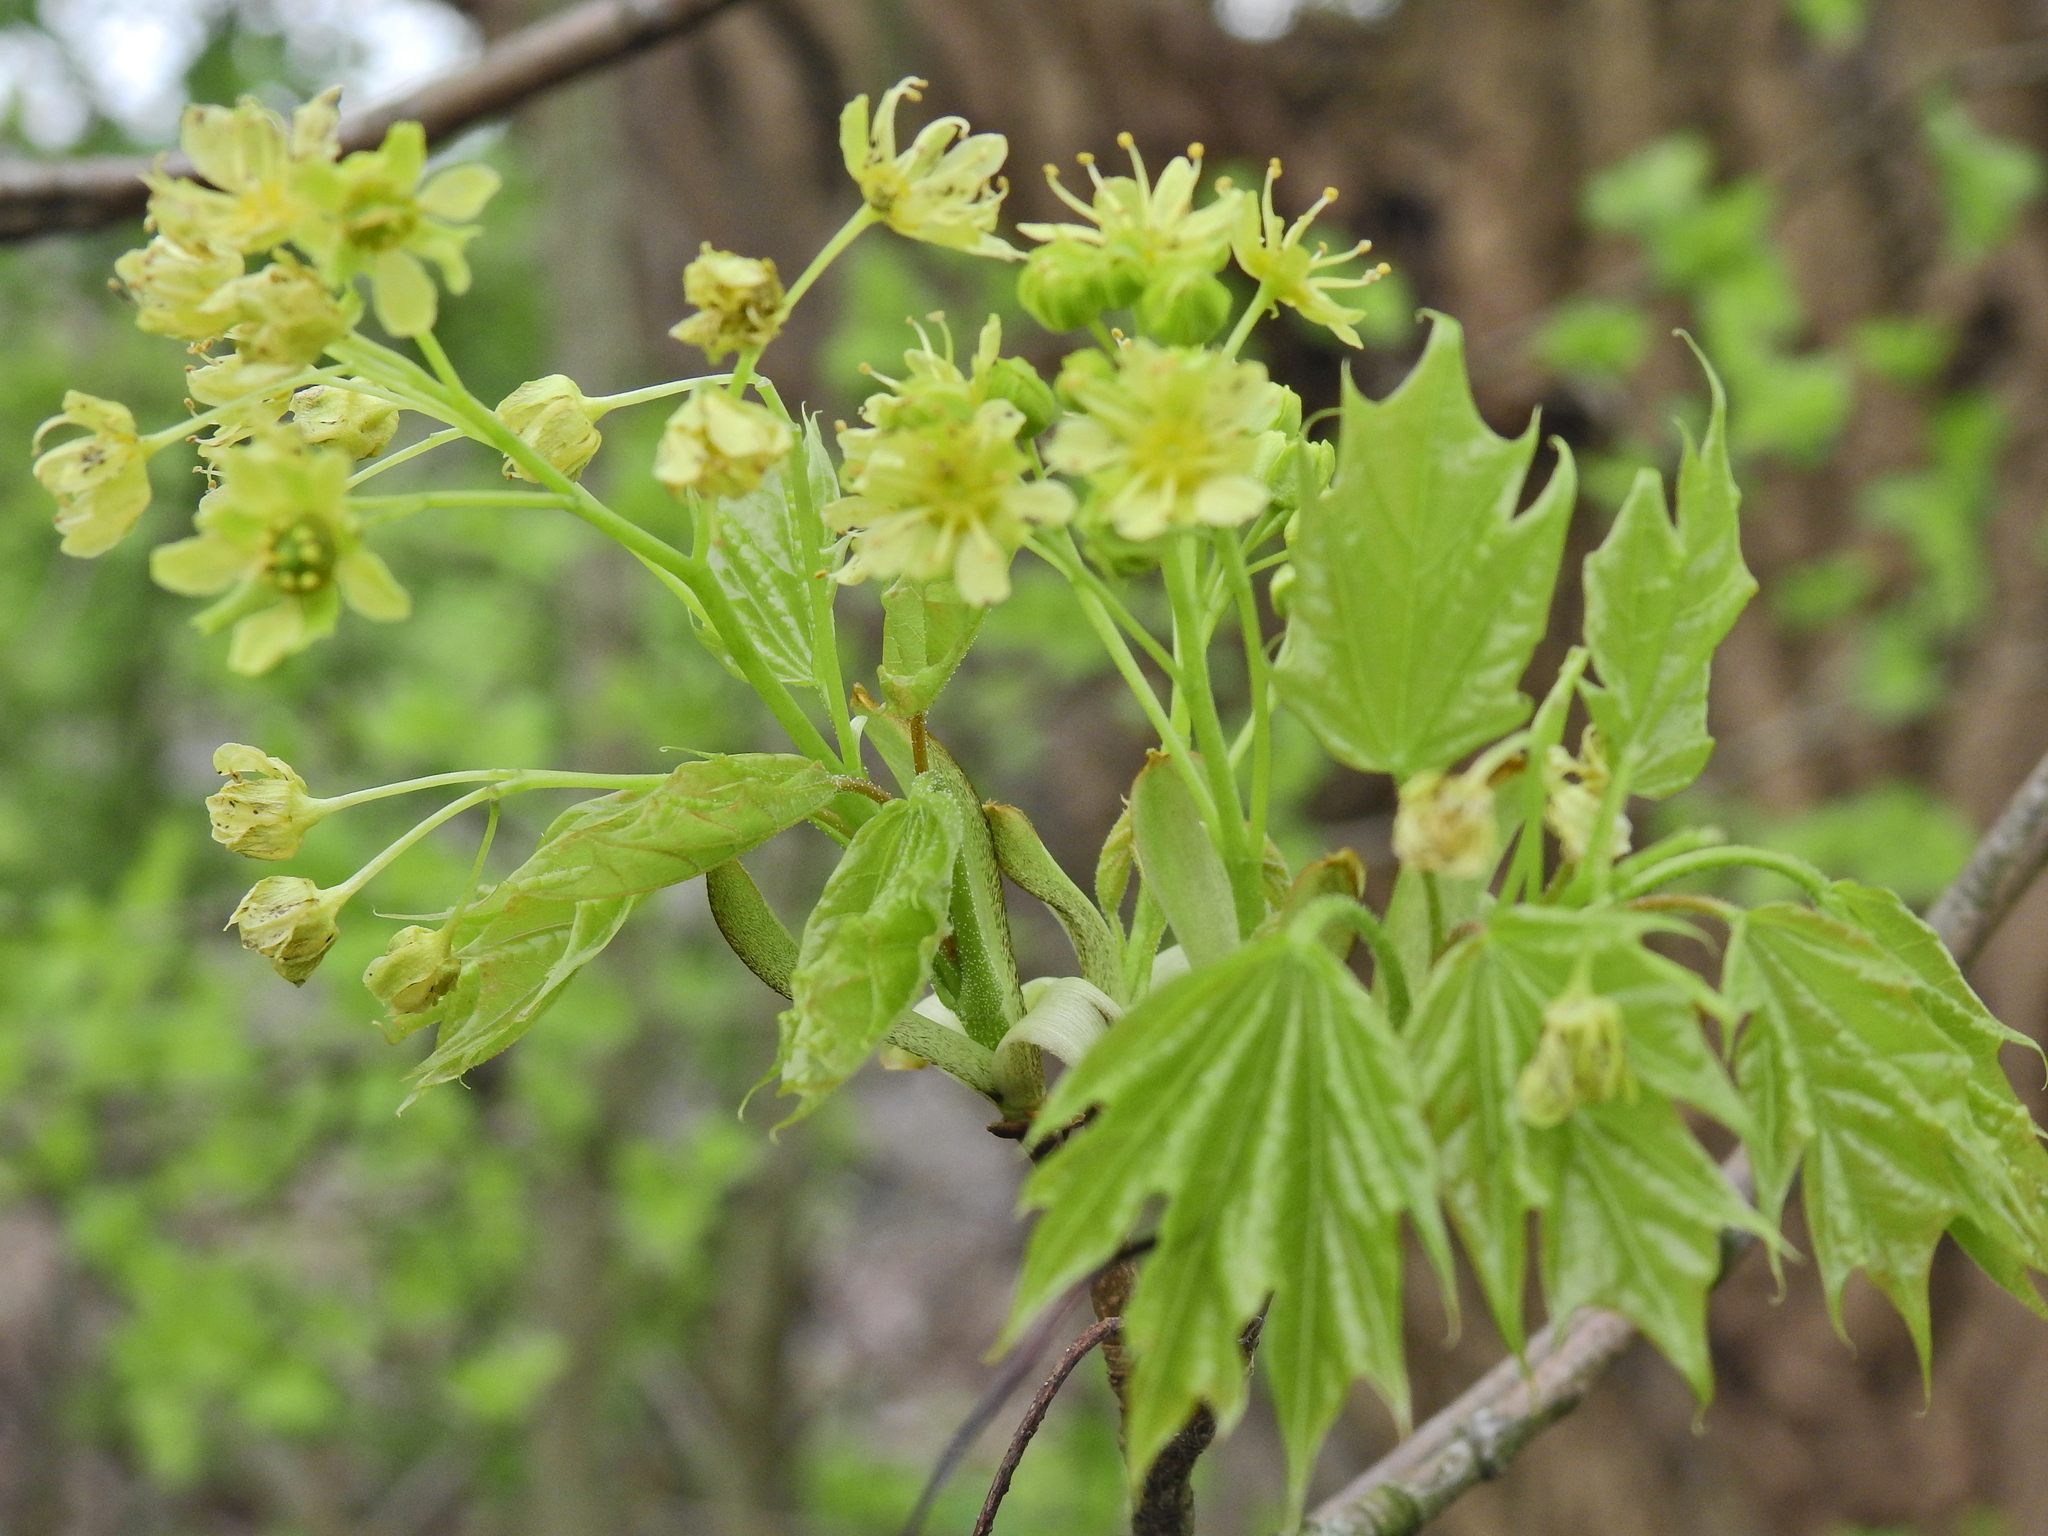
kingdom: Plantae
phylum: Tracheophyta
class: Magnoliopsida
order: Sapindales
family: Sapindaceae
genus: Acer
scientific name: Acer platanoides
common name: Norway maple
